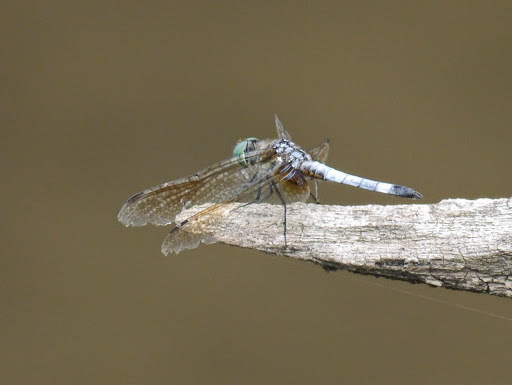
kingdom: Animalia
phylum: Arthropoda
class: Insecta
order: Odonata
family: Libellulidae
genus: Pachydiplax
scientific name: Pachydiplax longipennis
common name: Blue dasher
